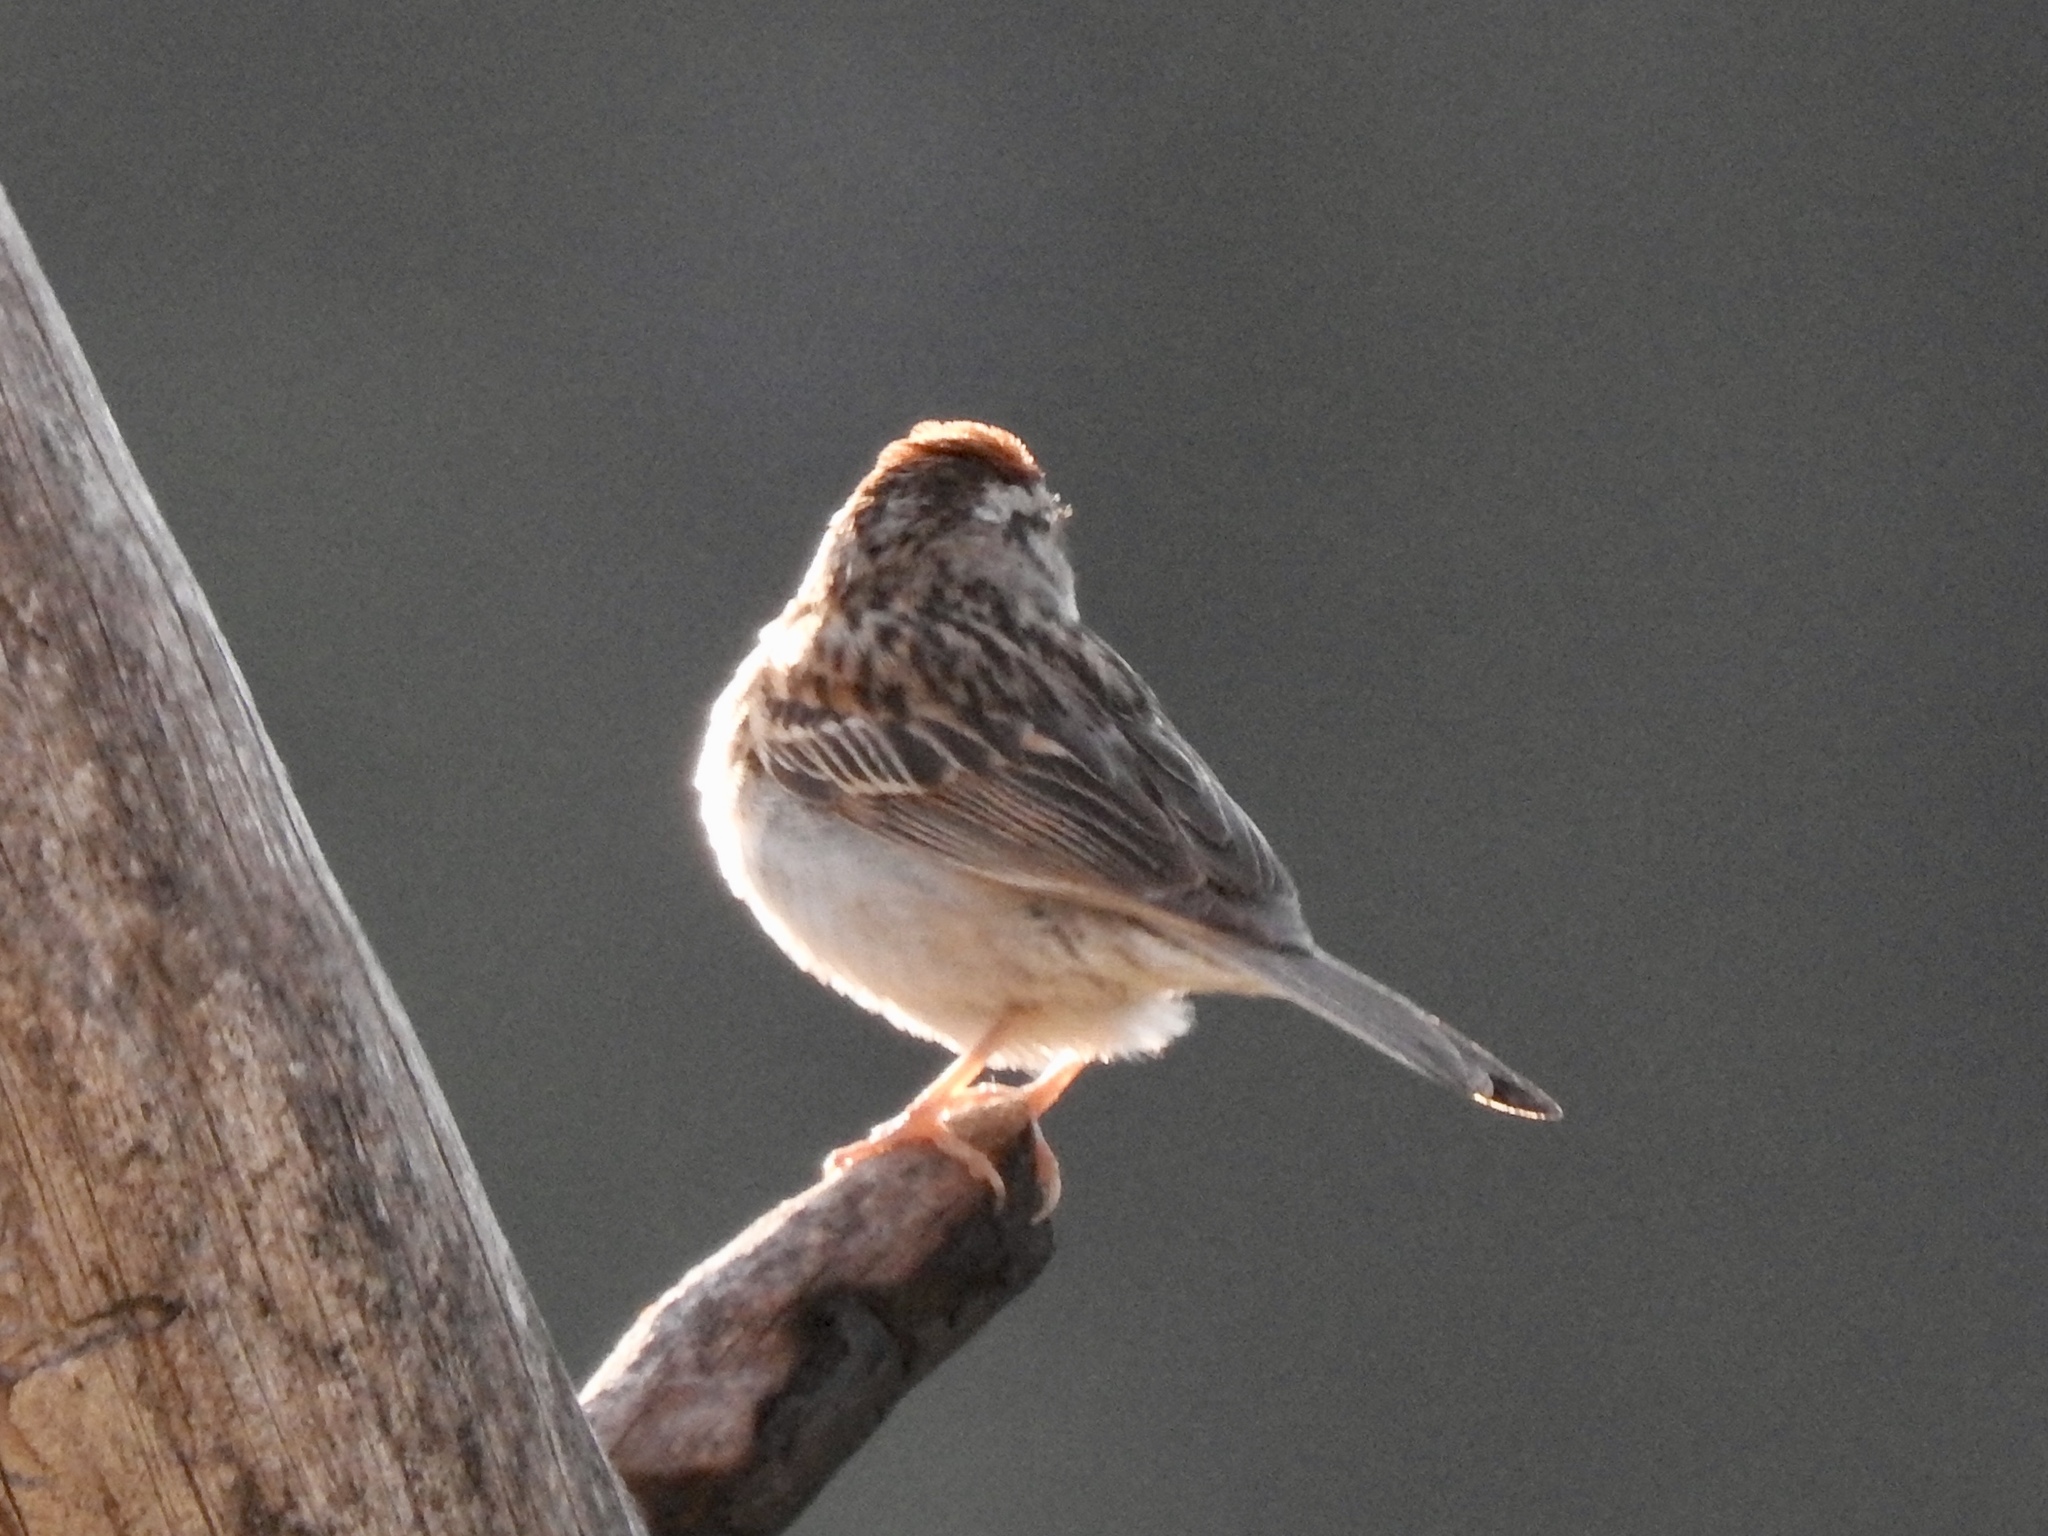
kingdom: Animalia
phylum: Chordata
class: Aves
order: Passeriformes
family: Passerellidae
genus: Spizella
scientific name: Spizella passerina
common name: Chipping sparrow
